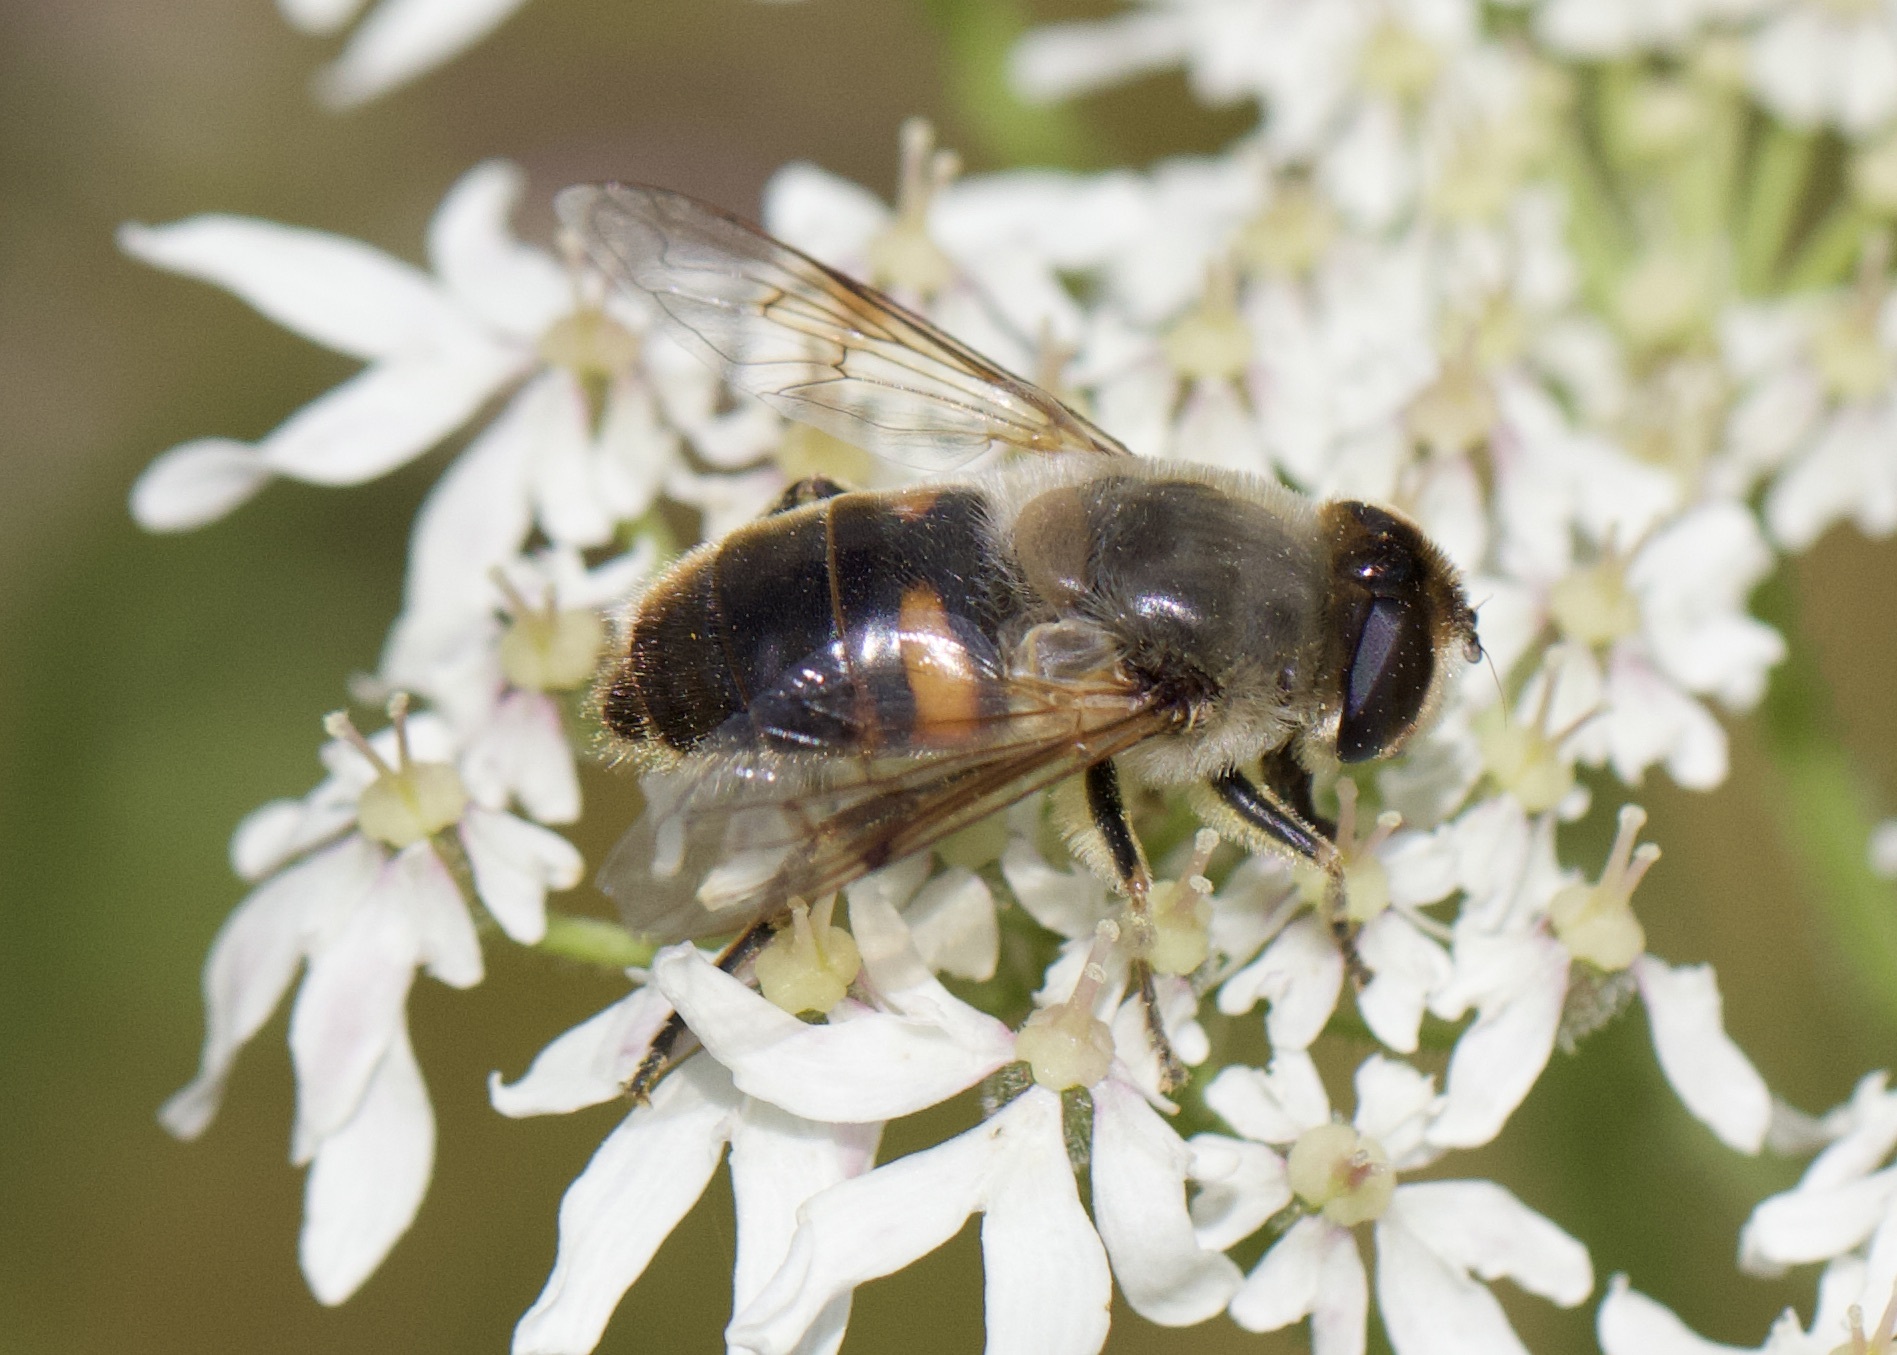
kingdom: Animalia
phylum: Arthropoda
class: Insecta
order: Diptera
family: Syrphidae
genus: Eristalis
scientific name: Eristalis tenax
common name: Drone fly
